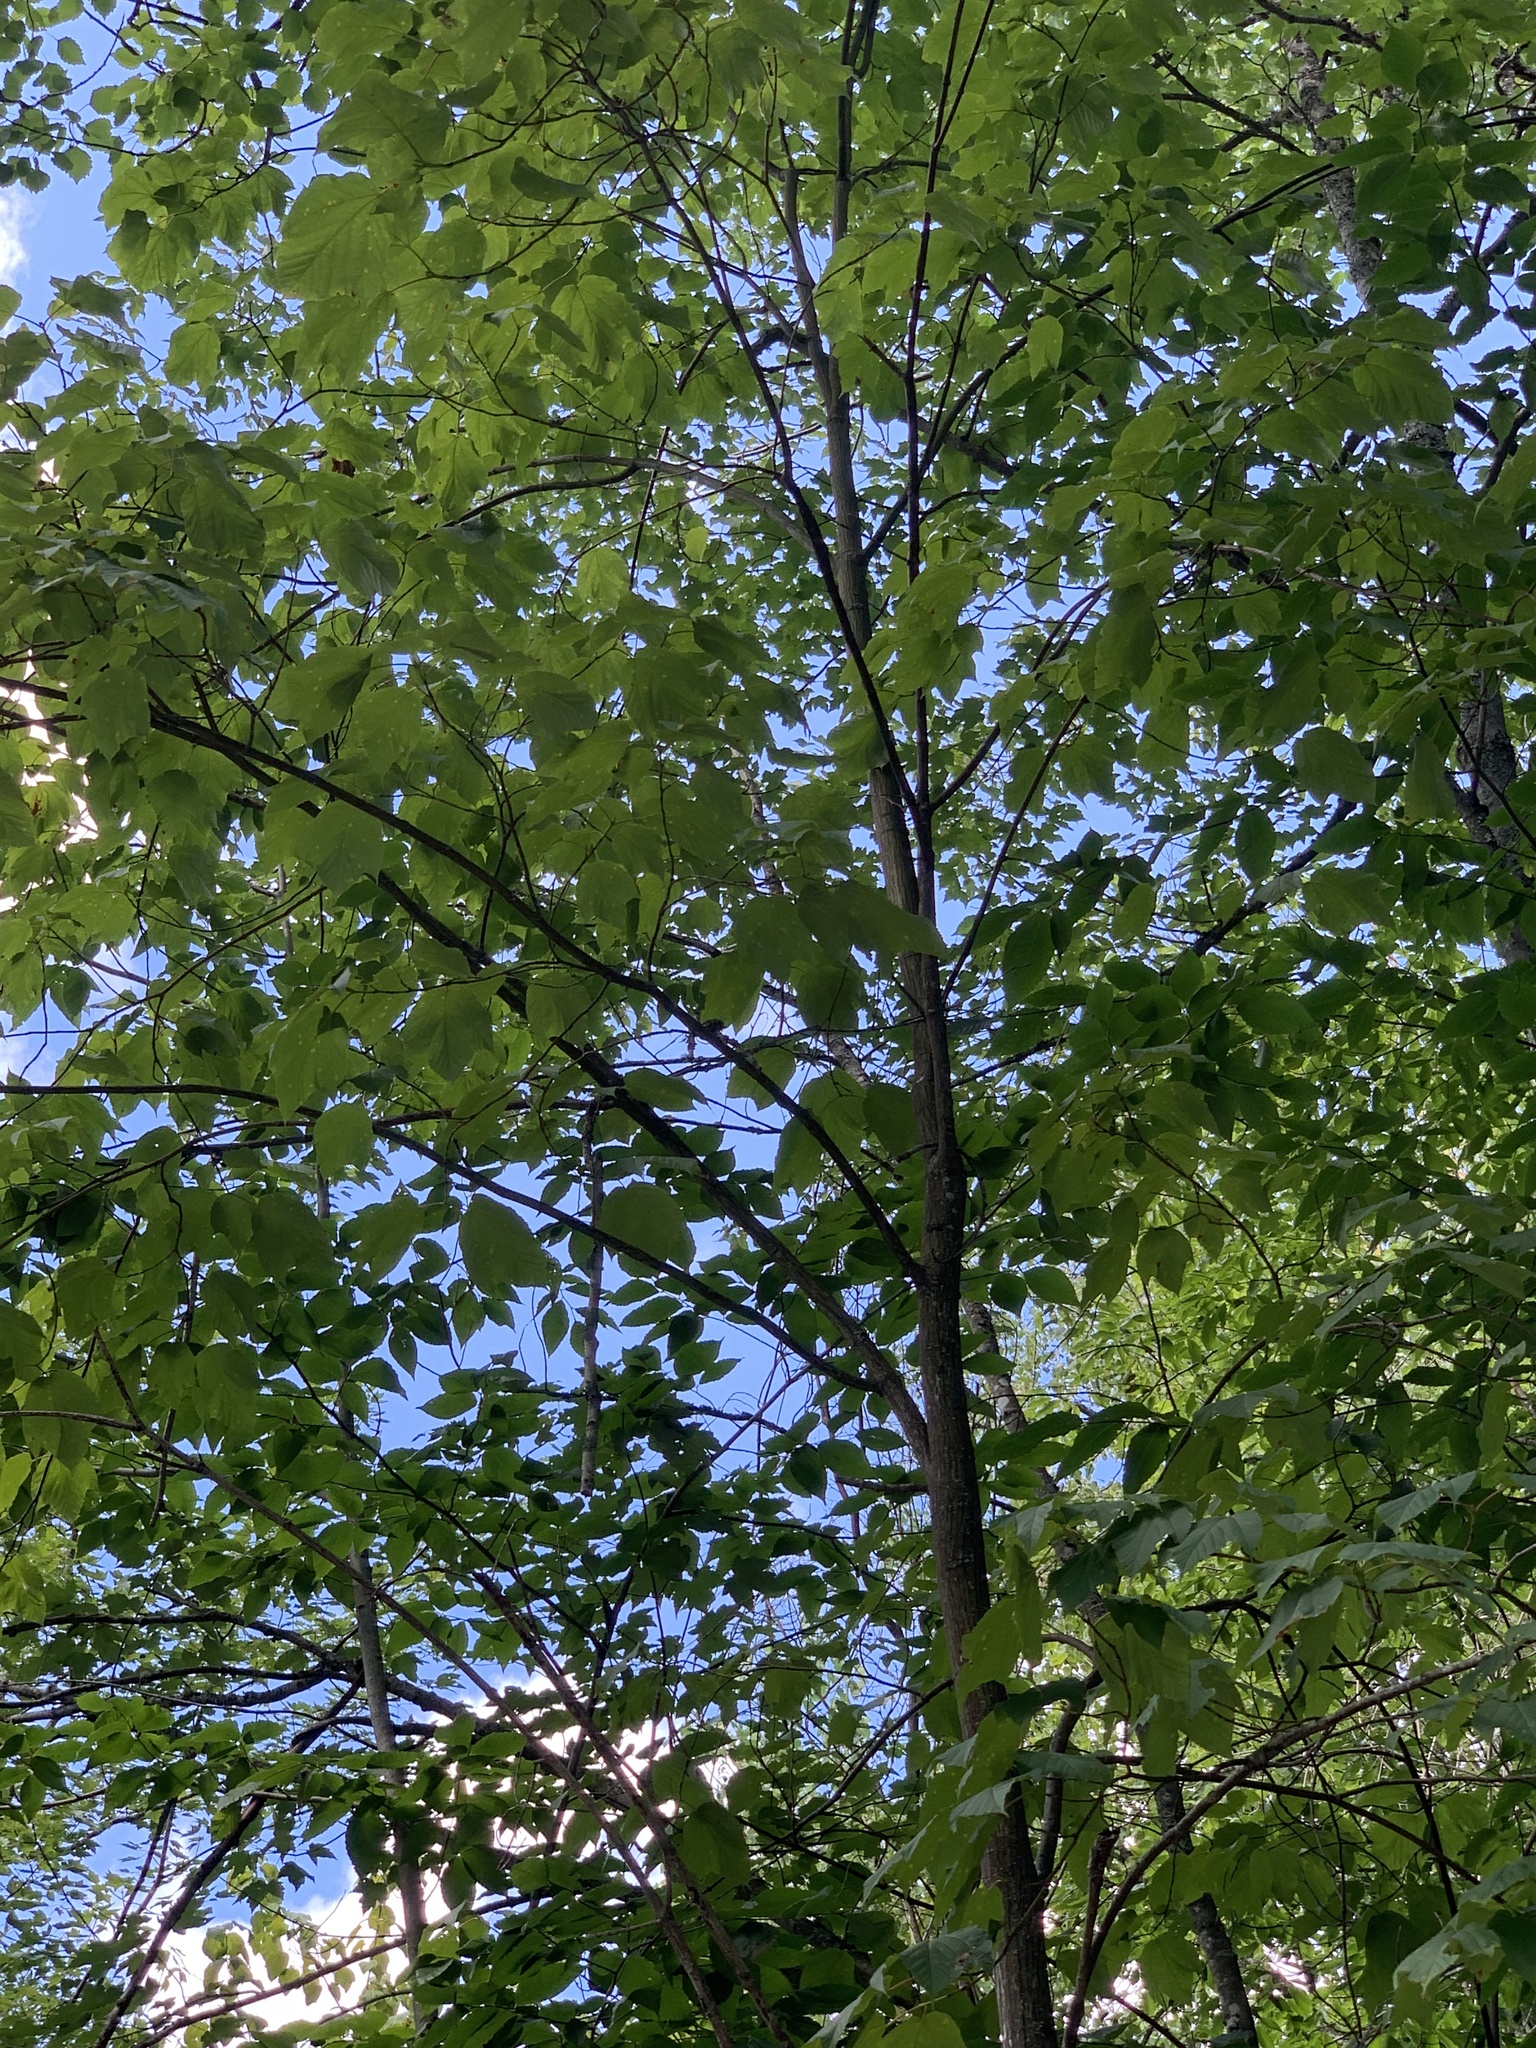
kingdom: Plantae
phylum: Tracheophyta
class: Magnoliopsida
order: Sapindales
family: Sapindaceae
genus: Acer
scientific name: Acer pensylvanicum
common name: Moosewood
